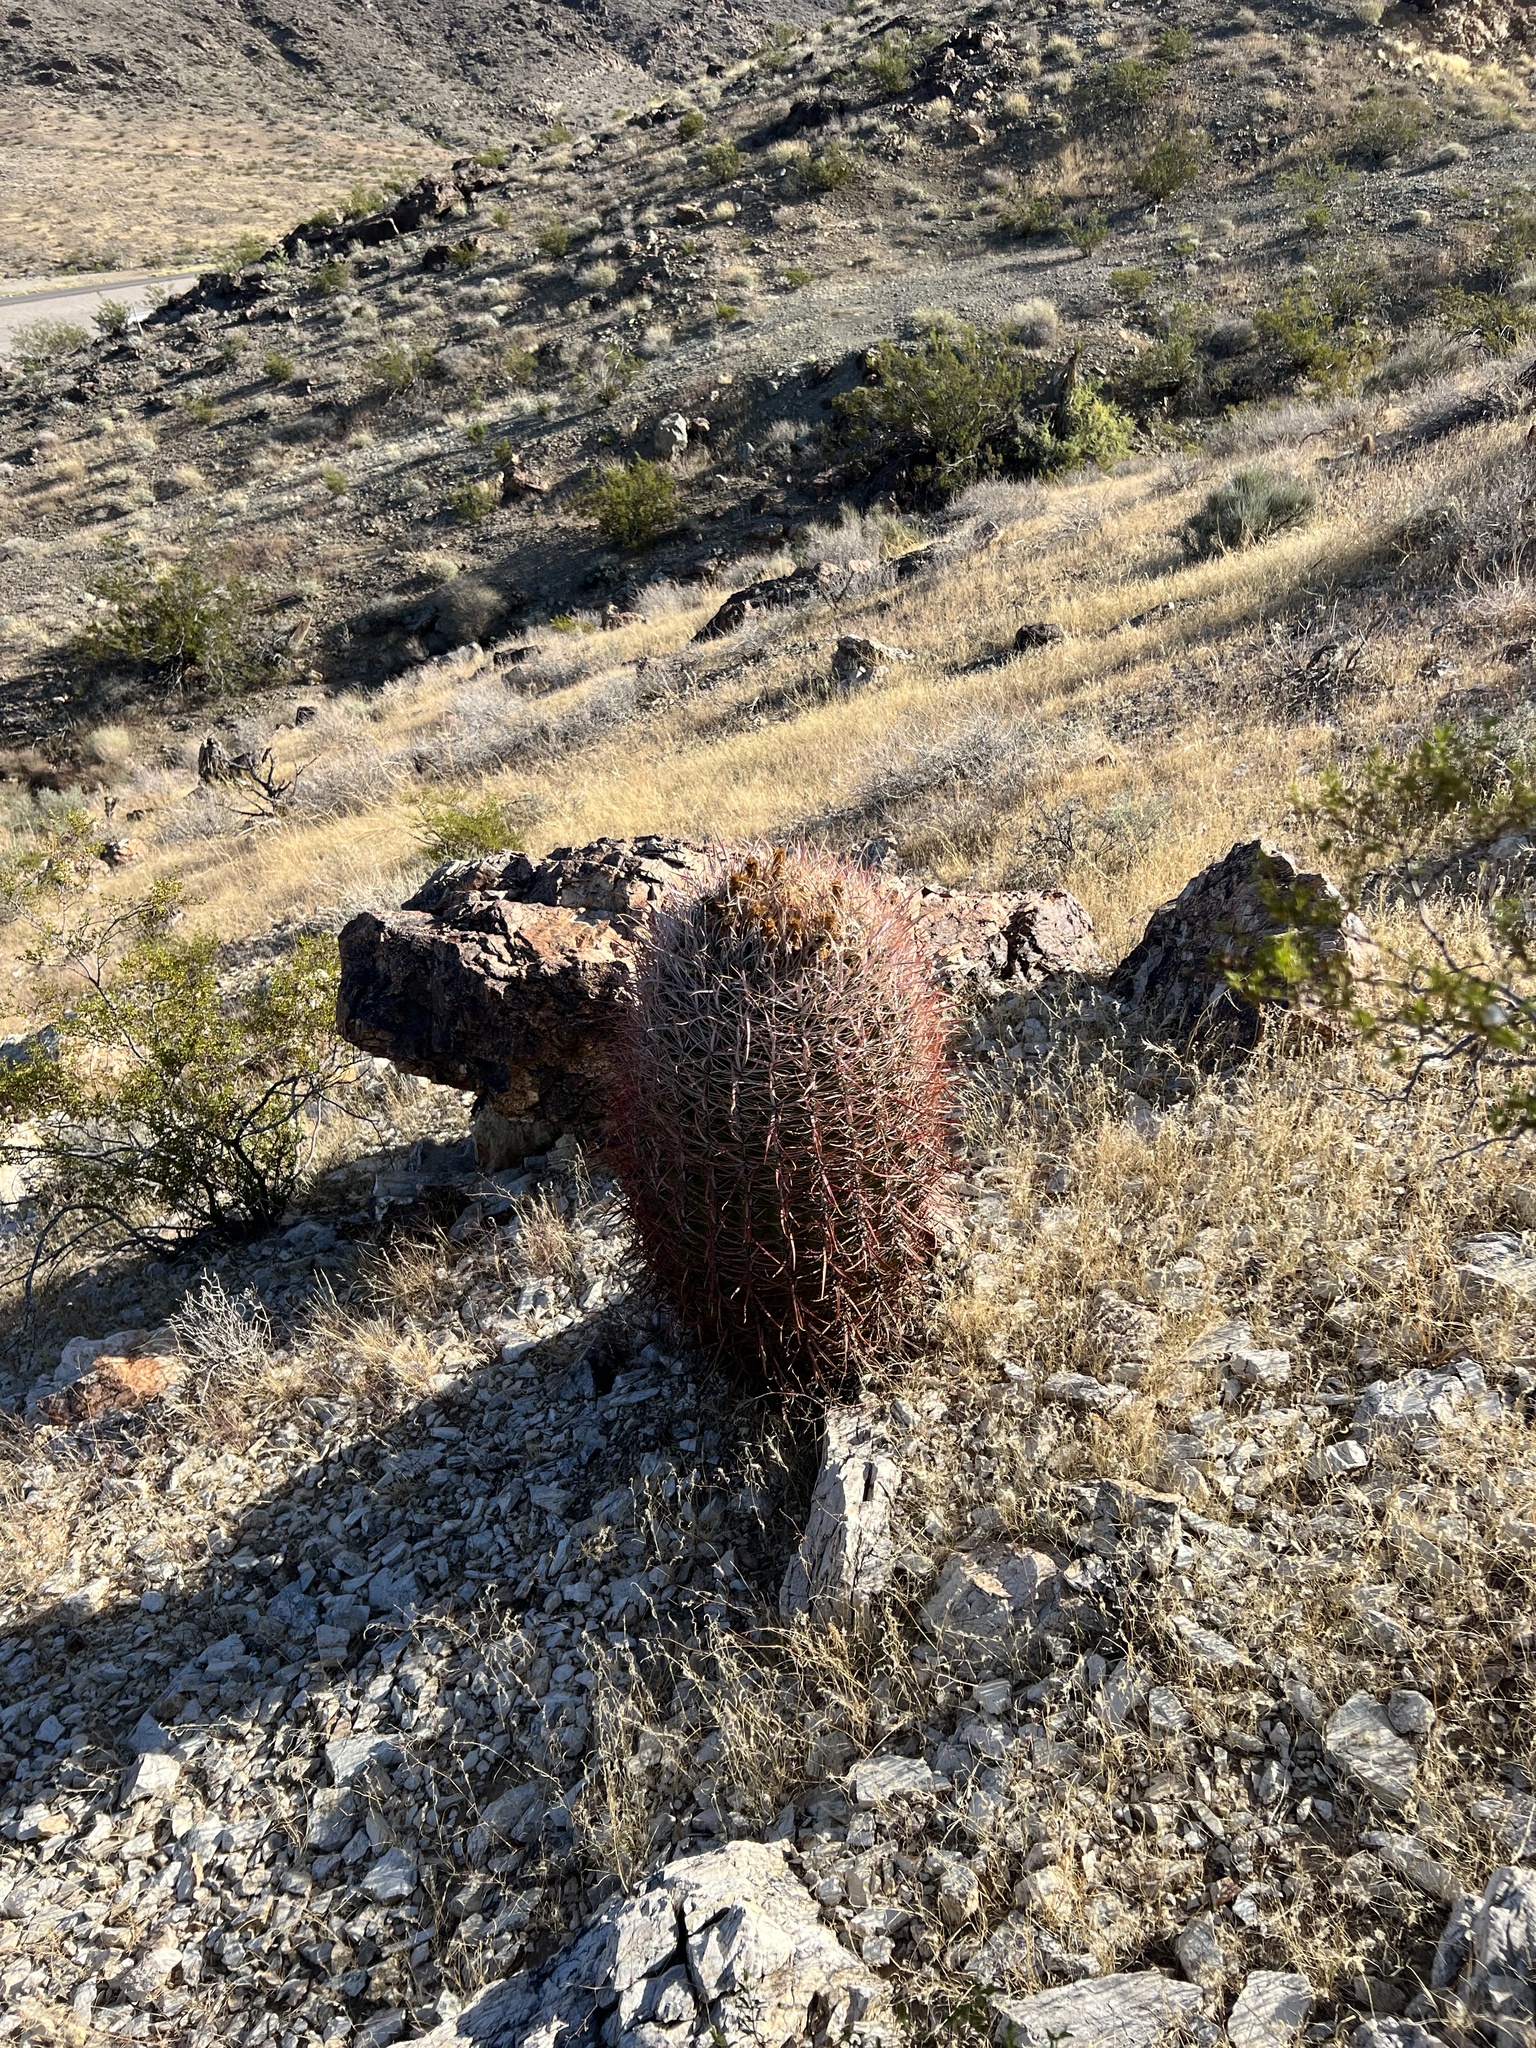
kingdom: Plantae
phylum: Tracheophyta
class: Magnoliopsida
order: Caryophyllales
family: Cactaceae
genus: Ferocactus
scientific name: Ferocactus cylindraceus
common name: California barrel cactus
